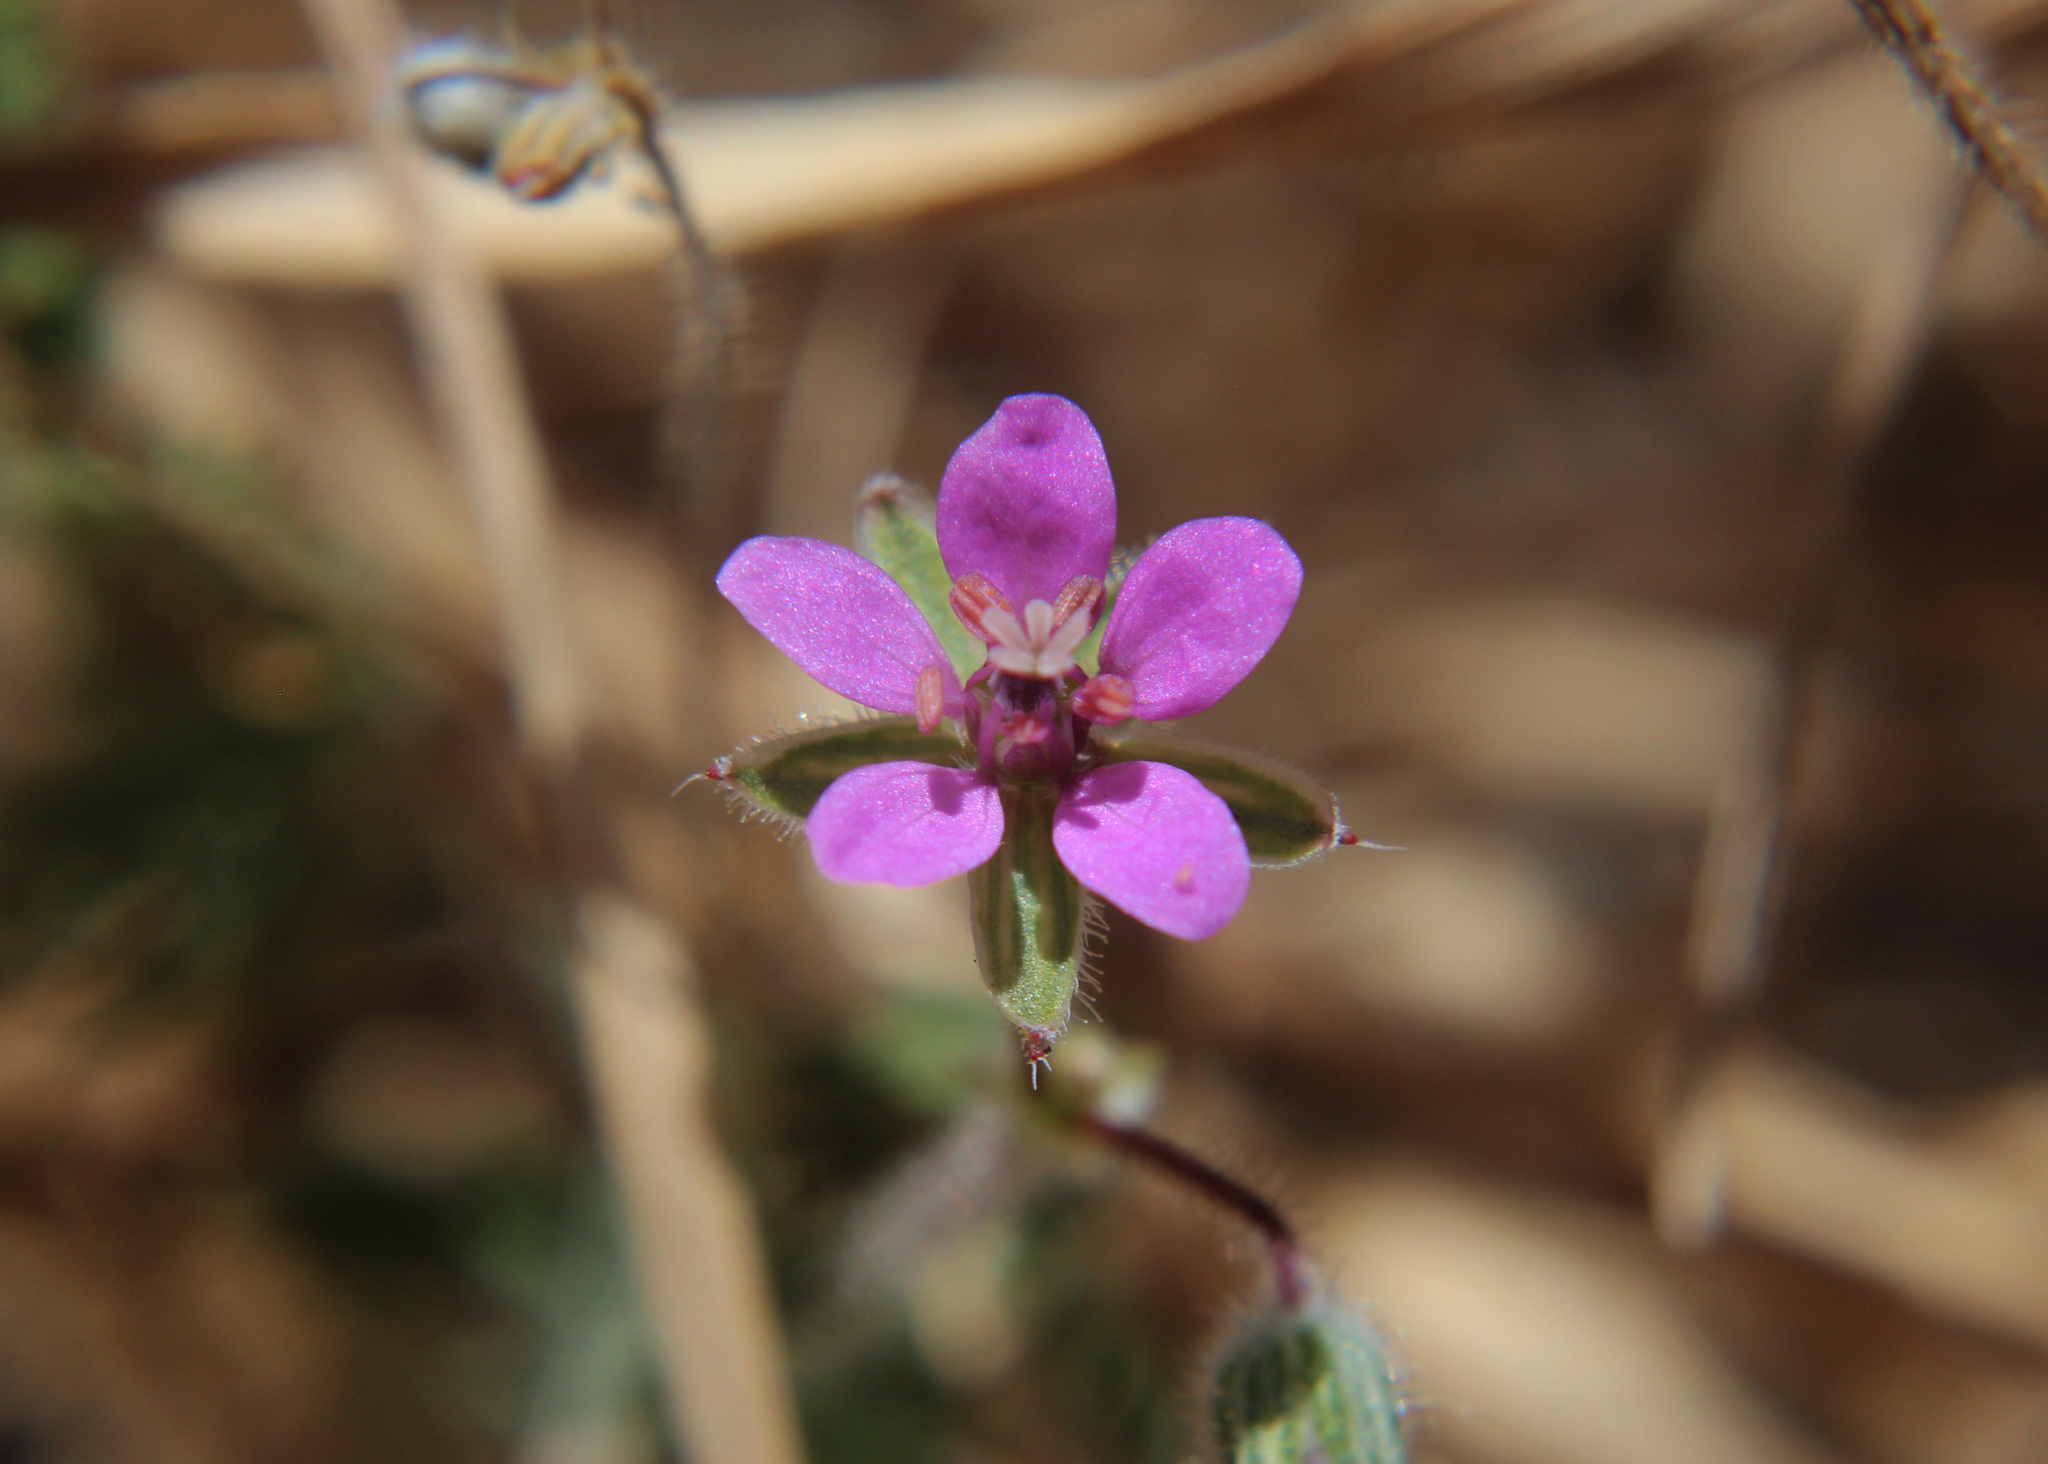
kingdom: Plantae
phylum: Tracheophyta
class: Magnoliopsida
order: Geraniales
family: Geraniaceae
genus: Erodium
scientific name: Erodium cicutarium
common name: Common stork's-bill
